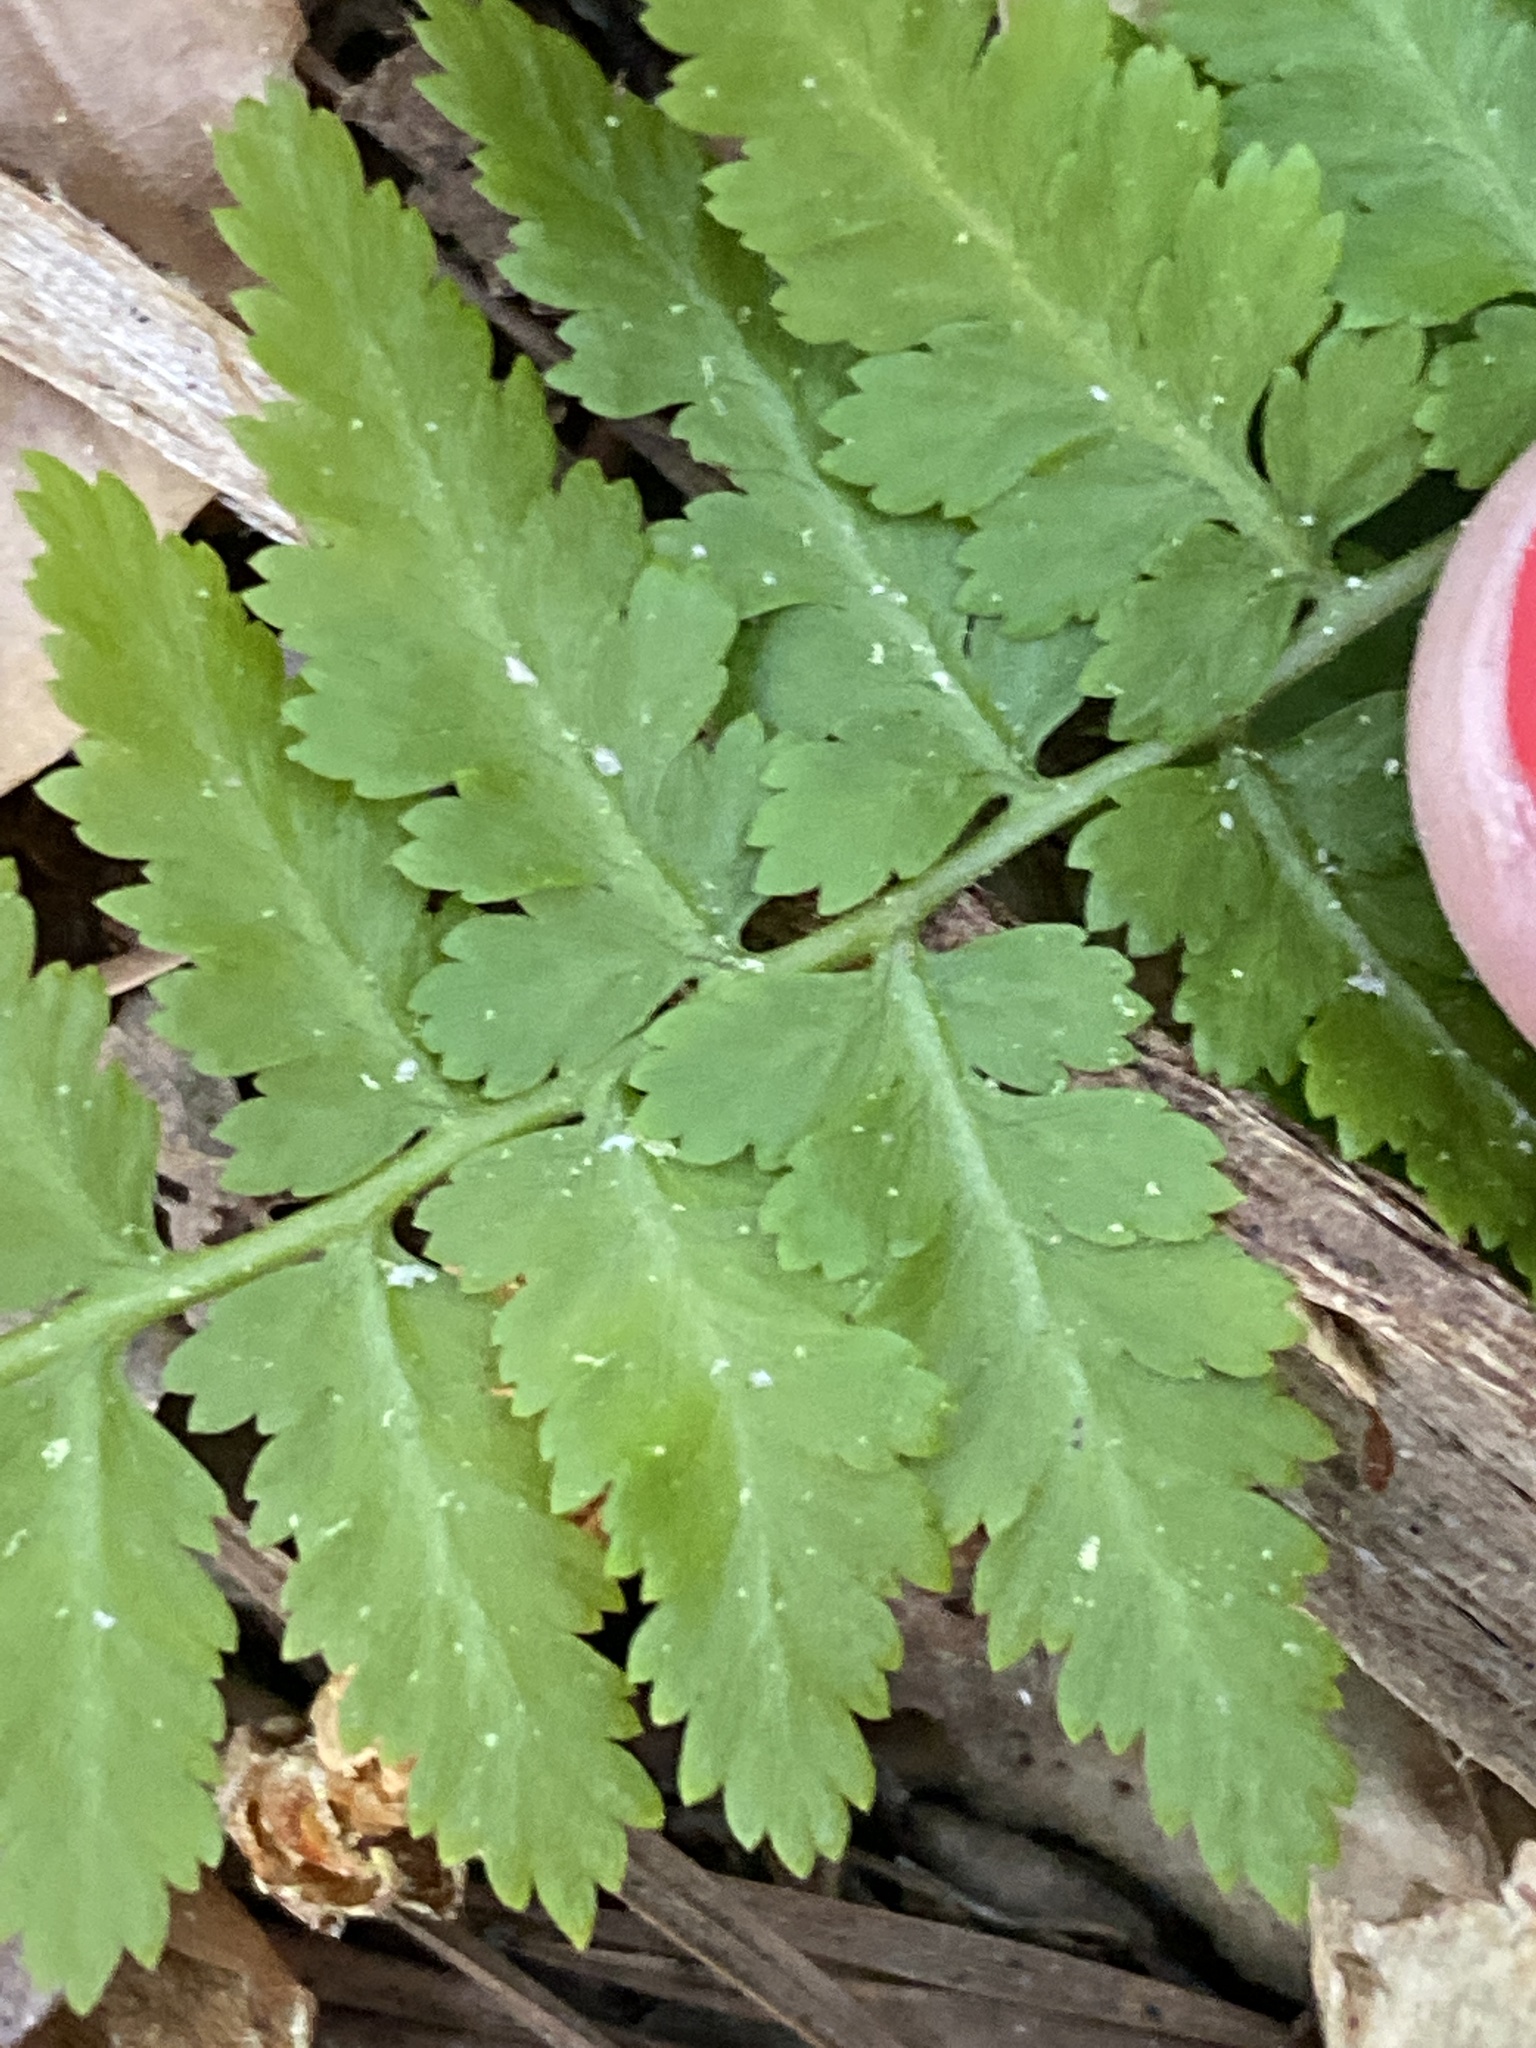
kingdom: Plantae
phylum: Tracheophyta
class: Polypodiopsida
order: Polypodiales
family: Athyriaceae
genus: Athyrium
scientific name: Athyrium asplenioides
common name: Southern lady fern
